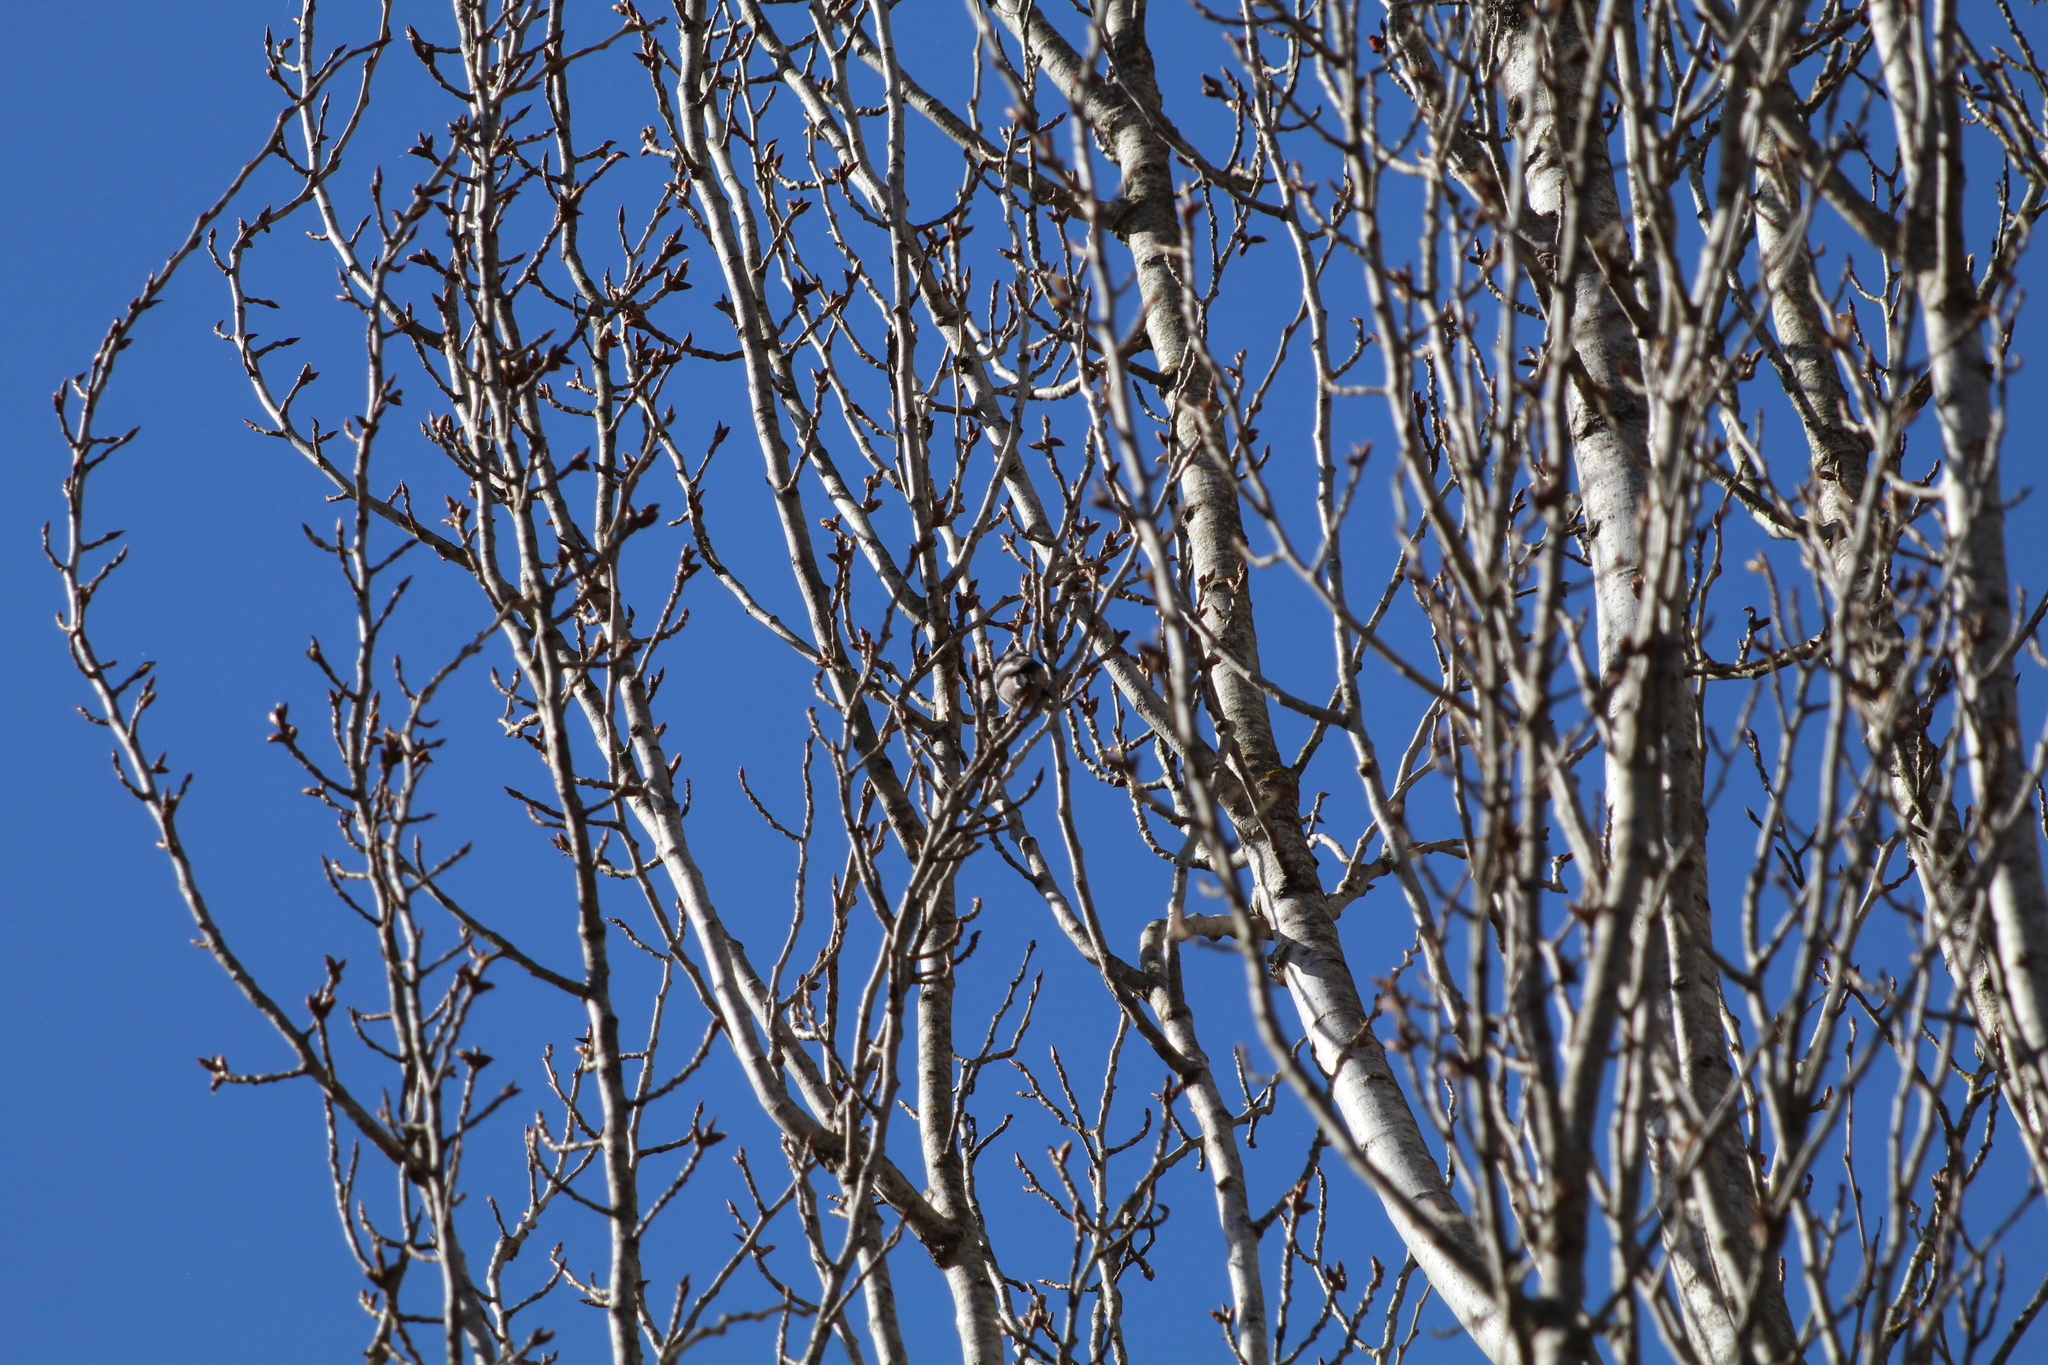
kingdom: Animalia
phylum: Chordata
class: Aves
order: Passeriformes
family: Aegithalidae
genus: Aegithalos
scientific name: Aegithalos caudatus
